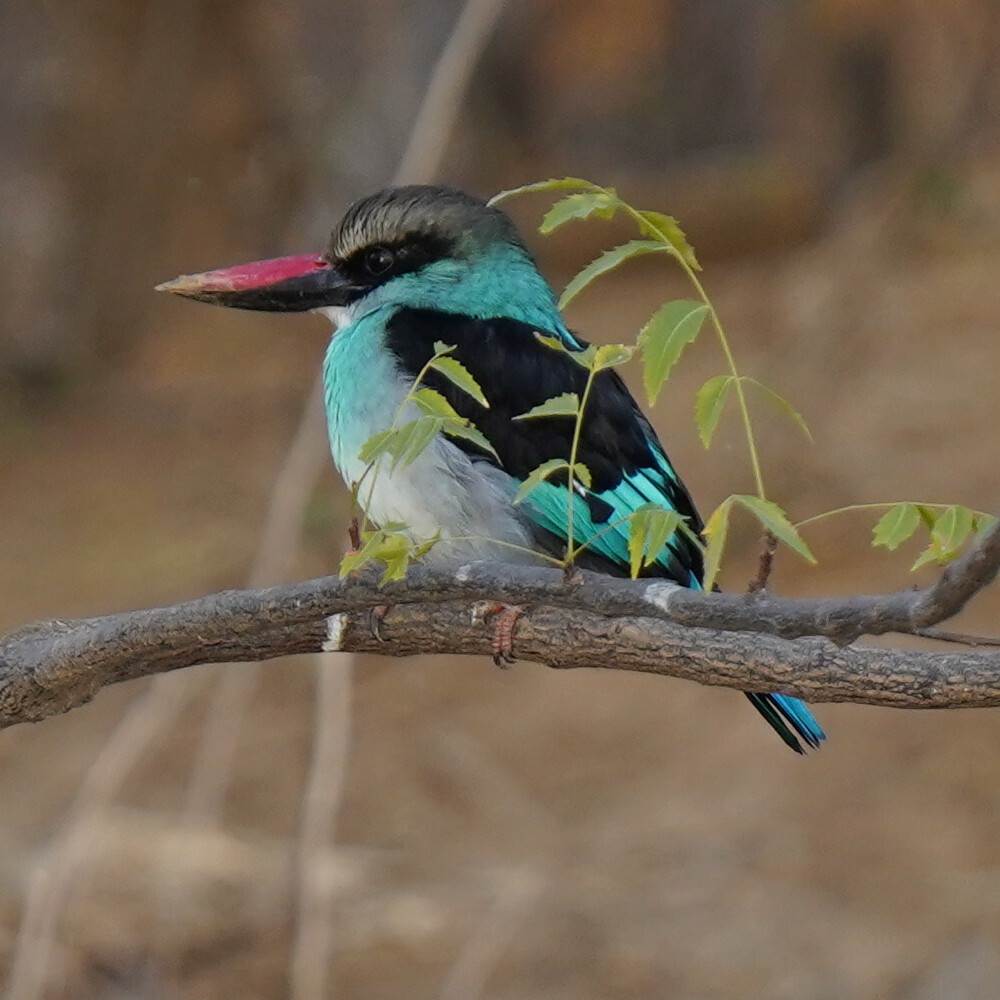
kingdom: Animalia
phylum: Chordata
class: Aves
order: Coraciiformes
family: Alcedinidae
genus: Halcyon
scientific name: Halcyon malimbica
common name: Blue-breasted kingfisher
